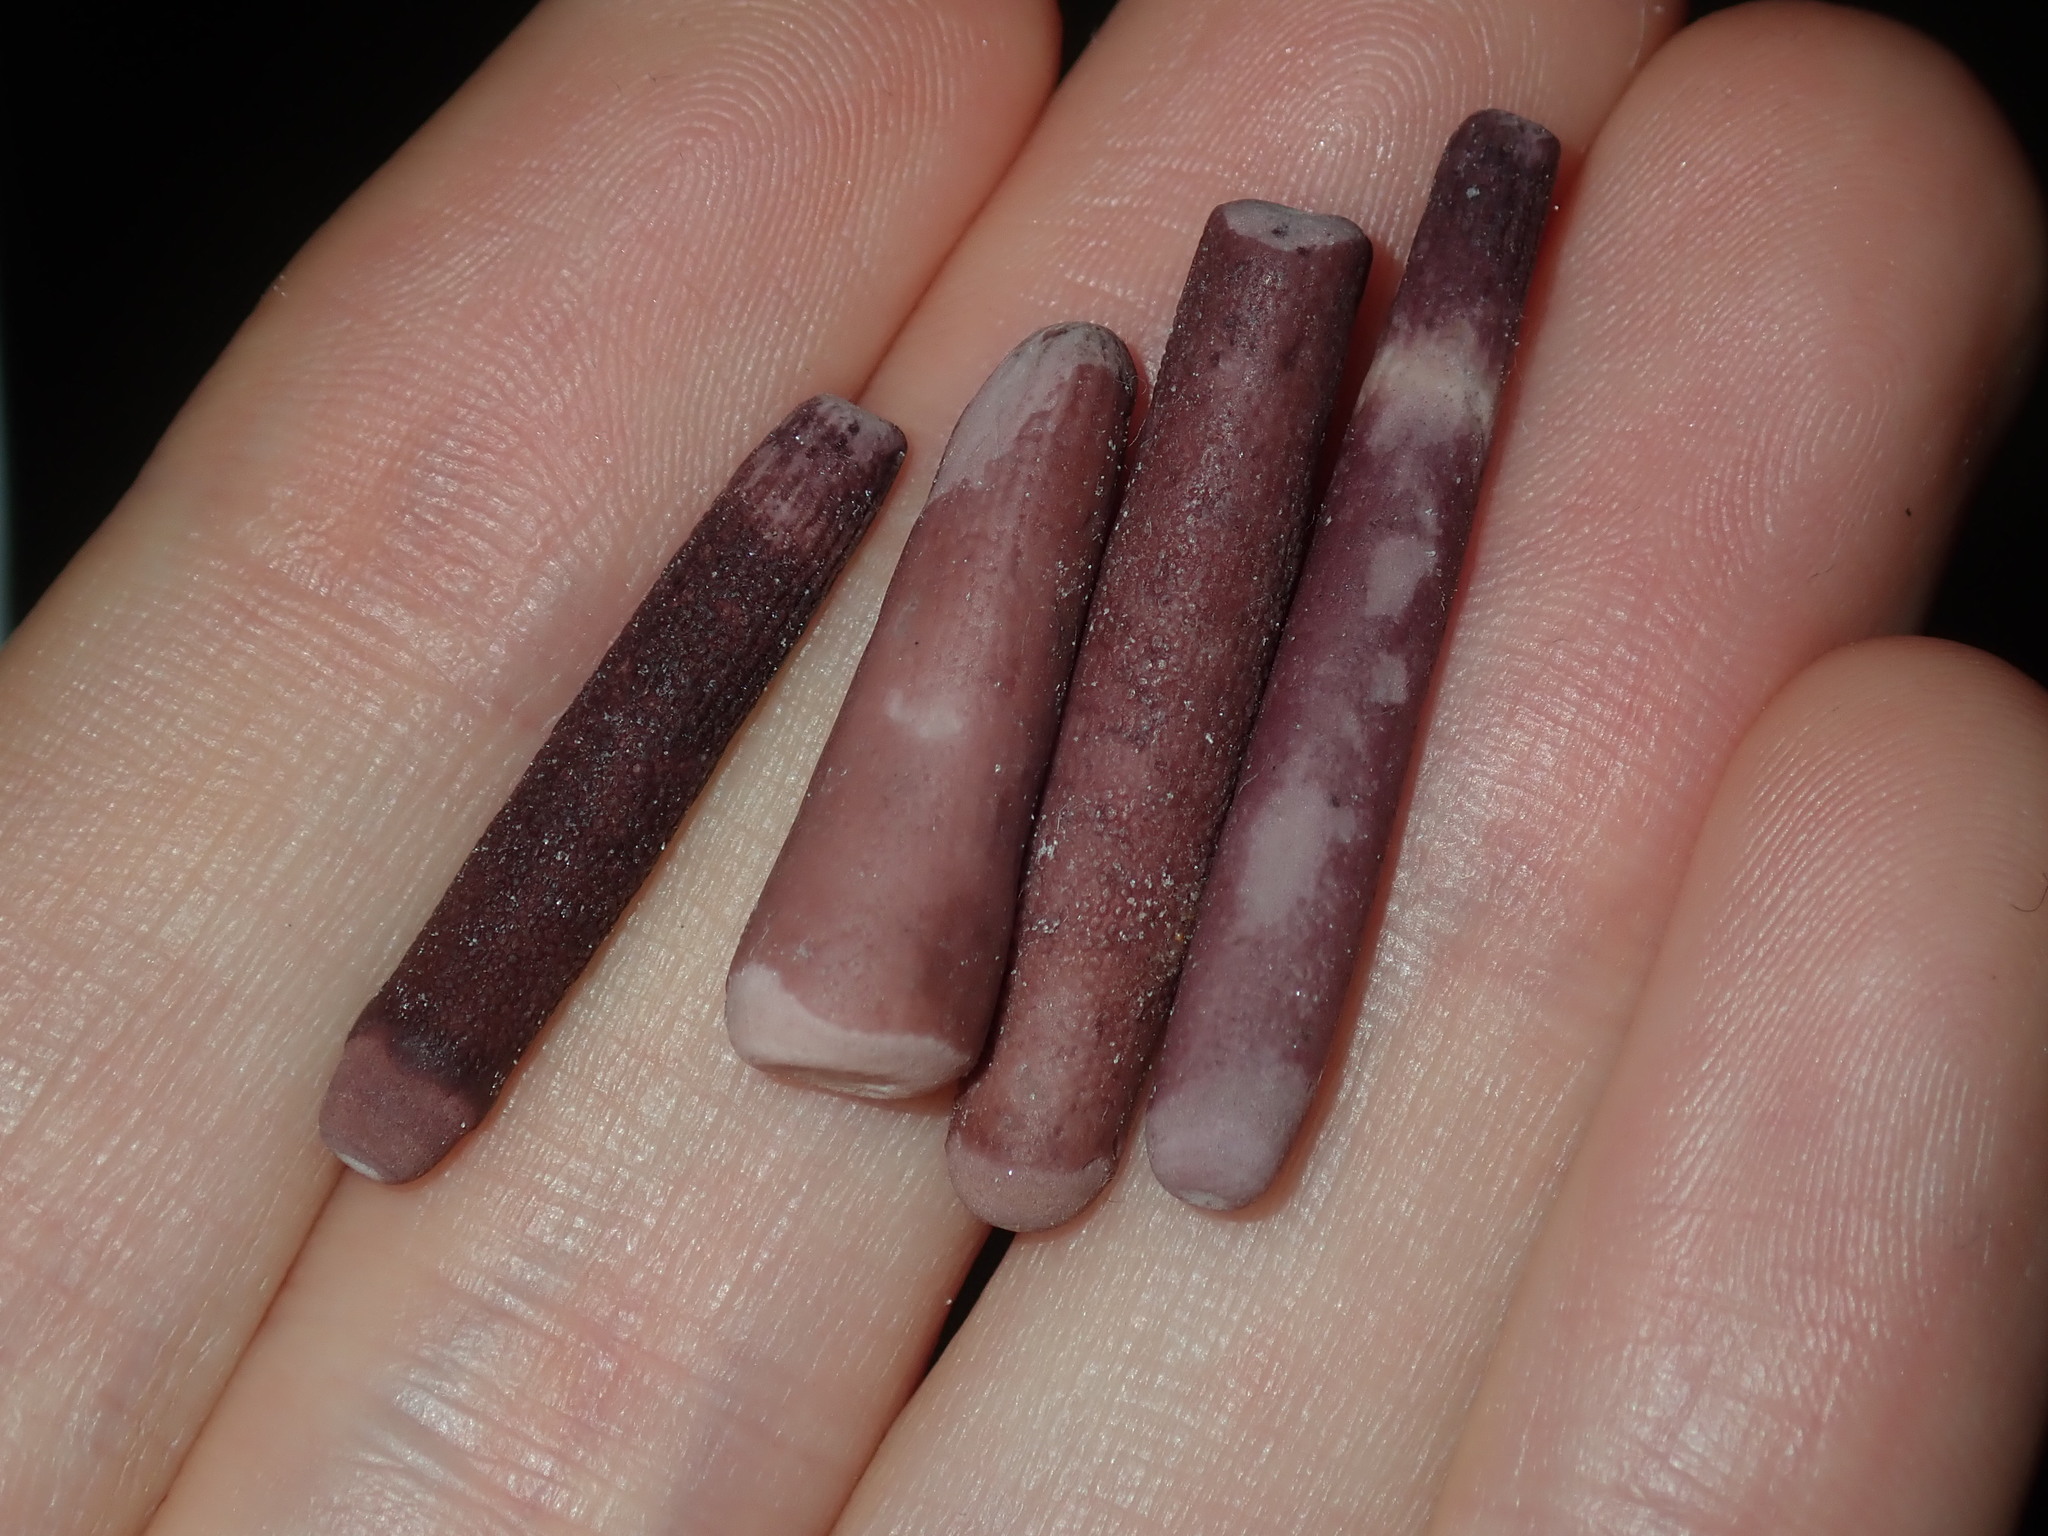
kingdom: Animalia
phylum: Echinodermata
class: Echinoidea
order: Cidaroida
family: Cidaridae
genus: Phyllacanthus
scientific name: Phyllacanthus parvispinus
